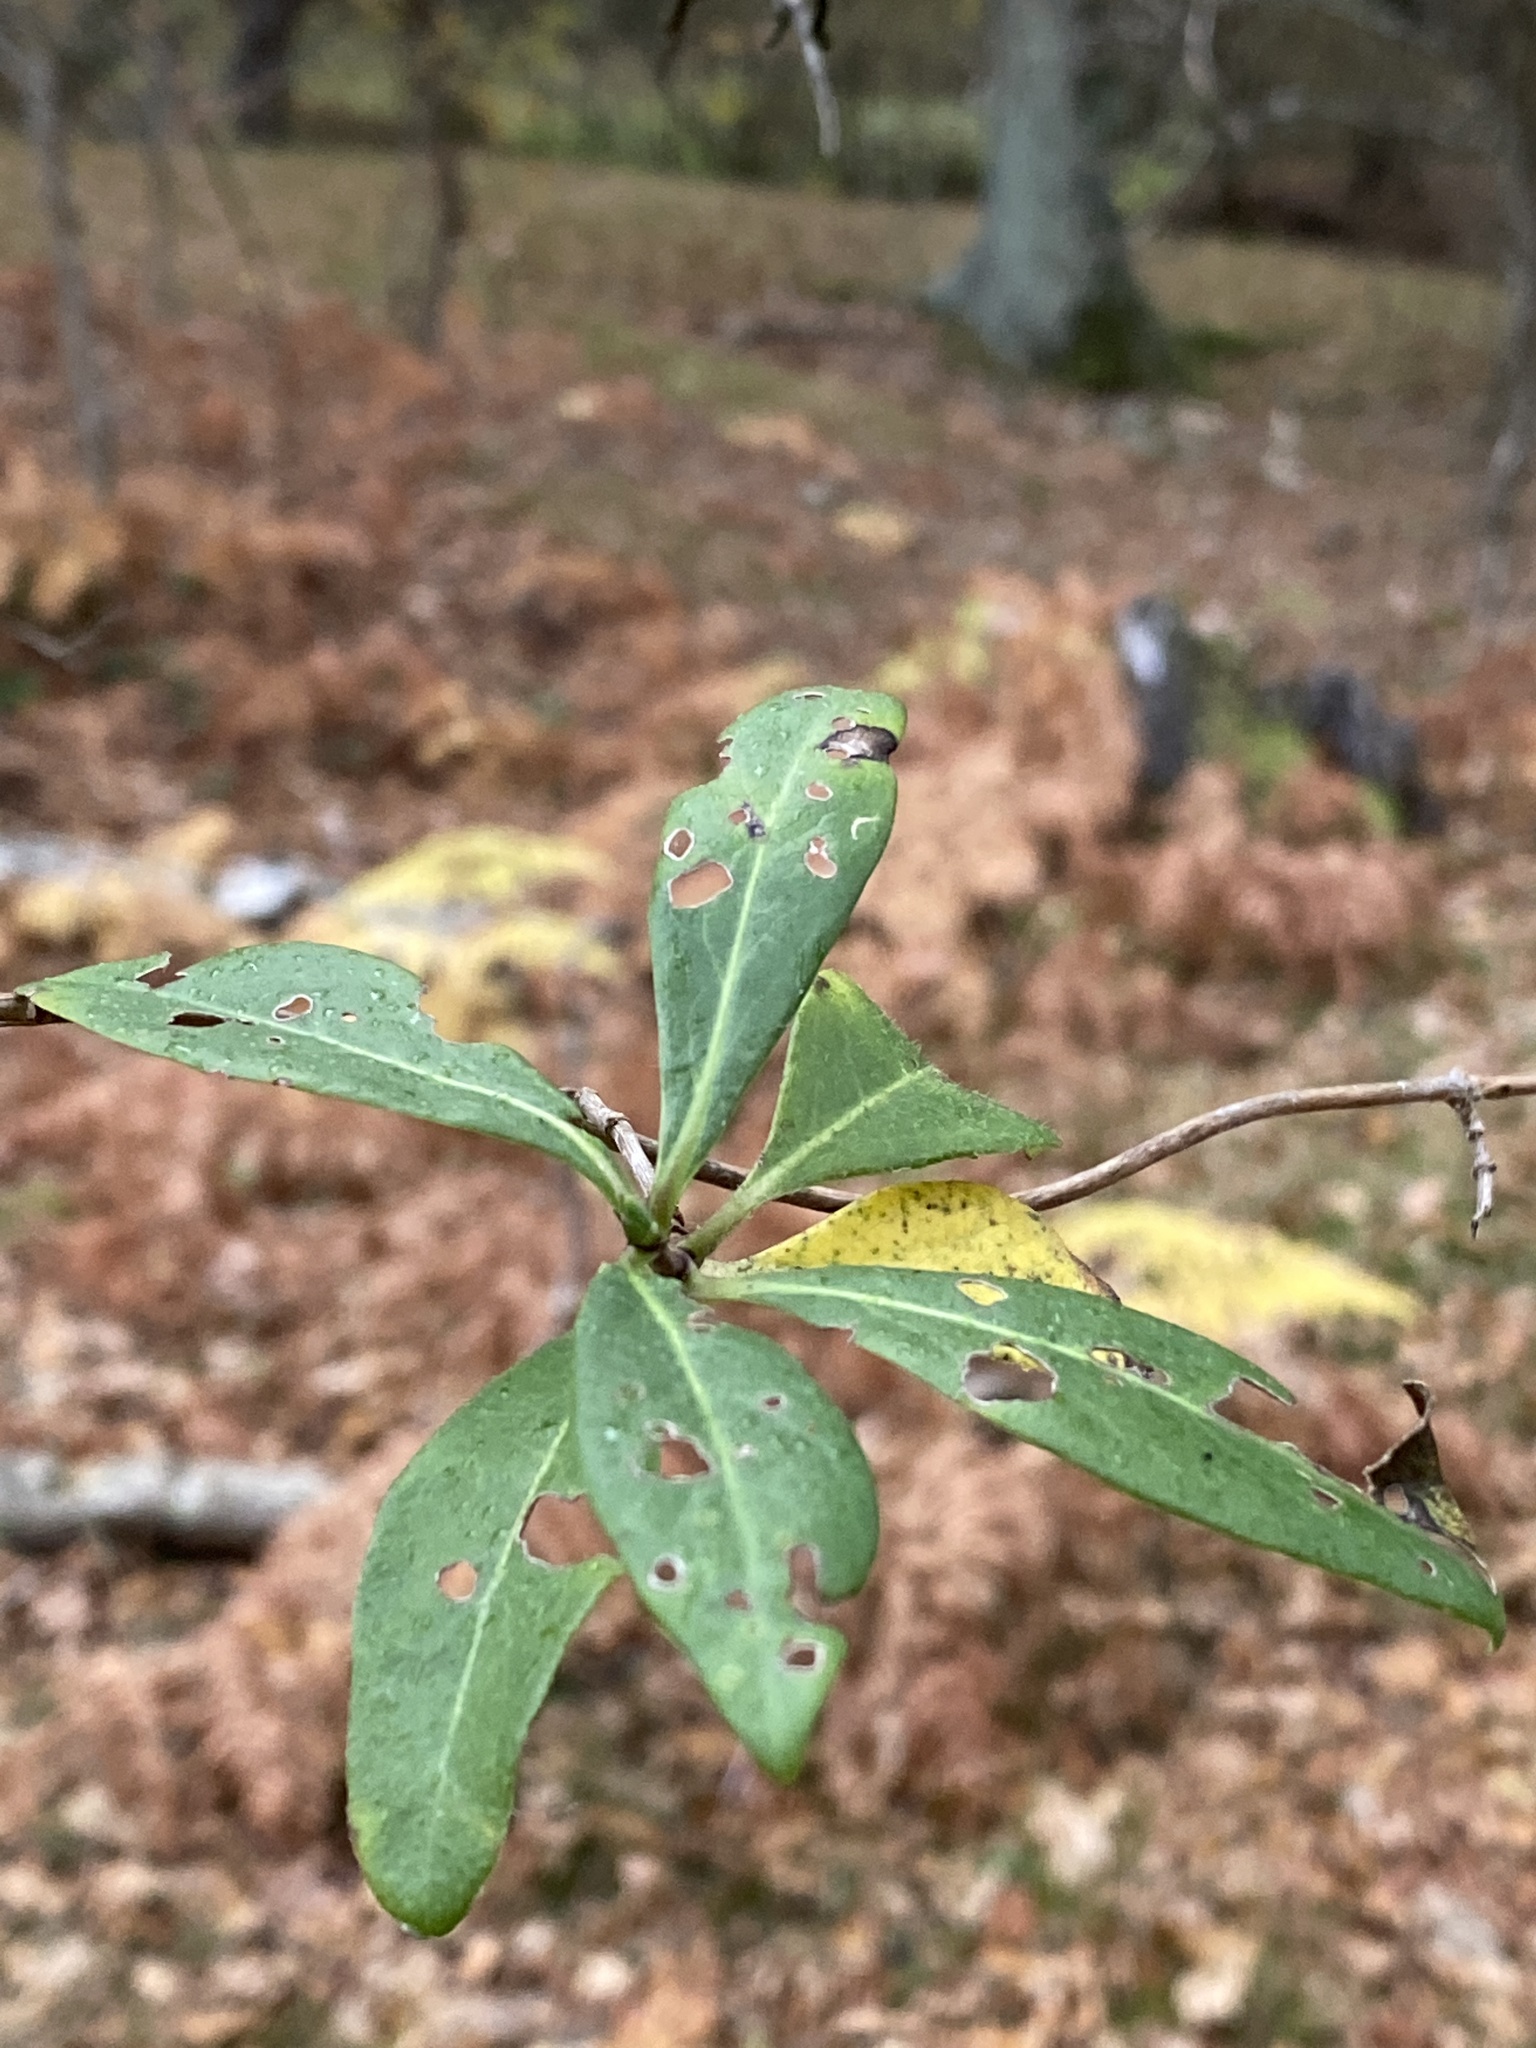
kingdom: Plantae
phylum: Tracheophyta
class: Magnoliopsida
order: Dipsacales
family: Caprifoliaceae
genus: Lonicera
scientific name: Lonicera periclymenum
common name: European honeysuckle
